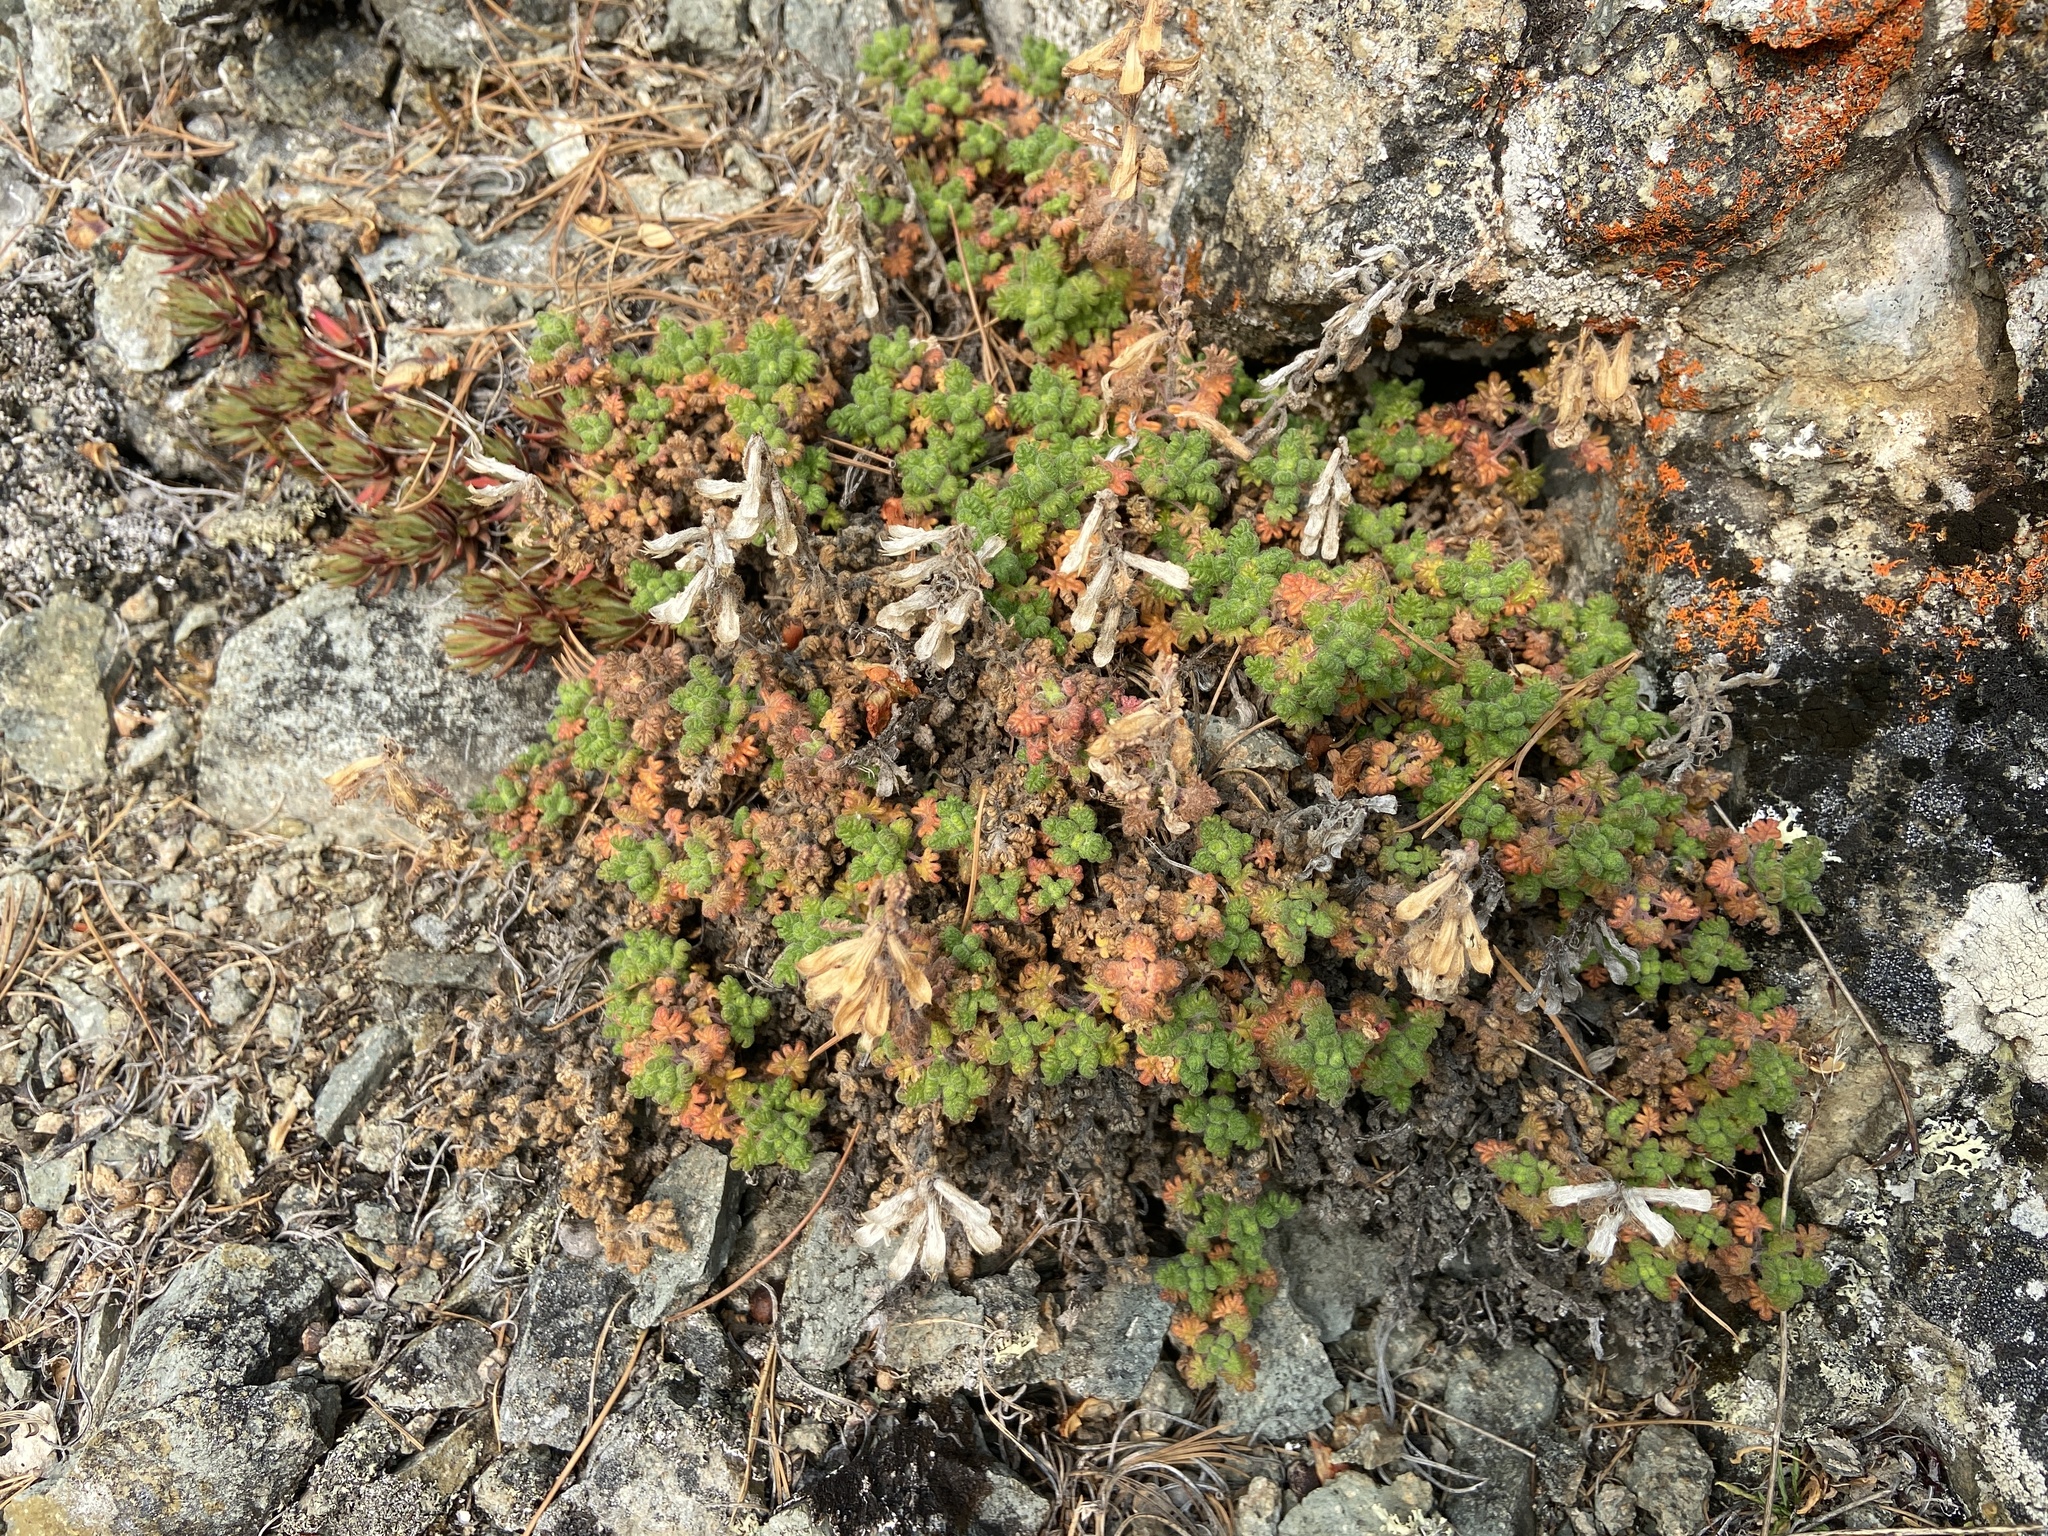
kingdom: Plantae
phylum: Tracheophyta
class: Magnoliopsida
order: Lamiales
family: Lamiaceae
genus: Dracocephalum
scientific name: Dracocephalum palmatum
